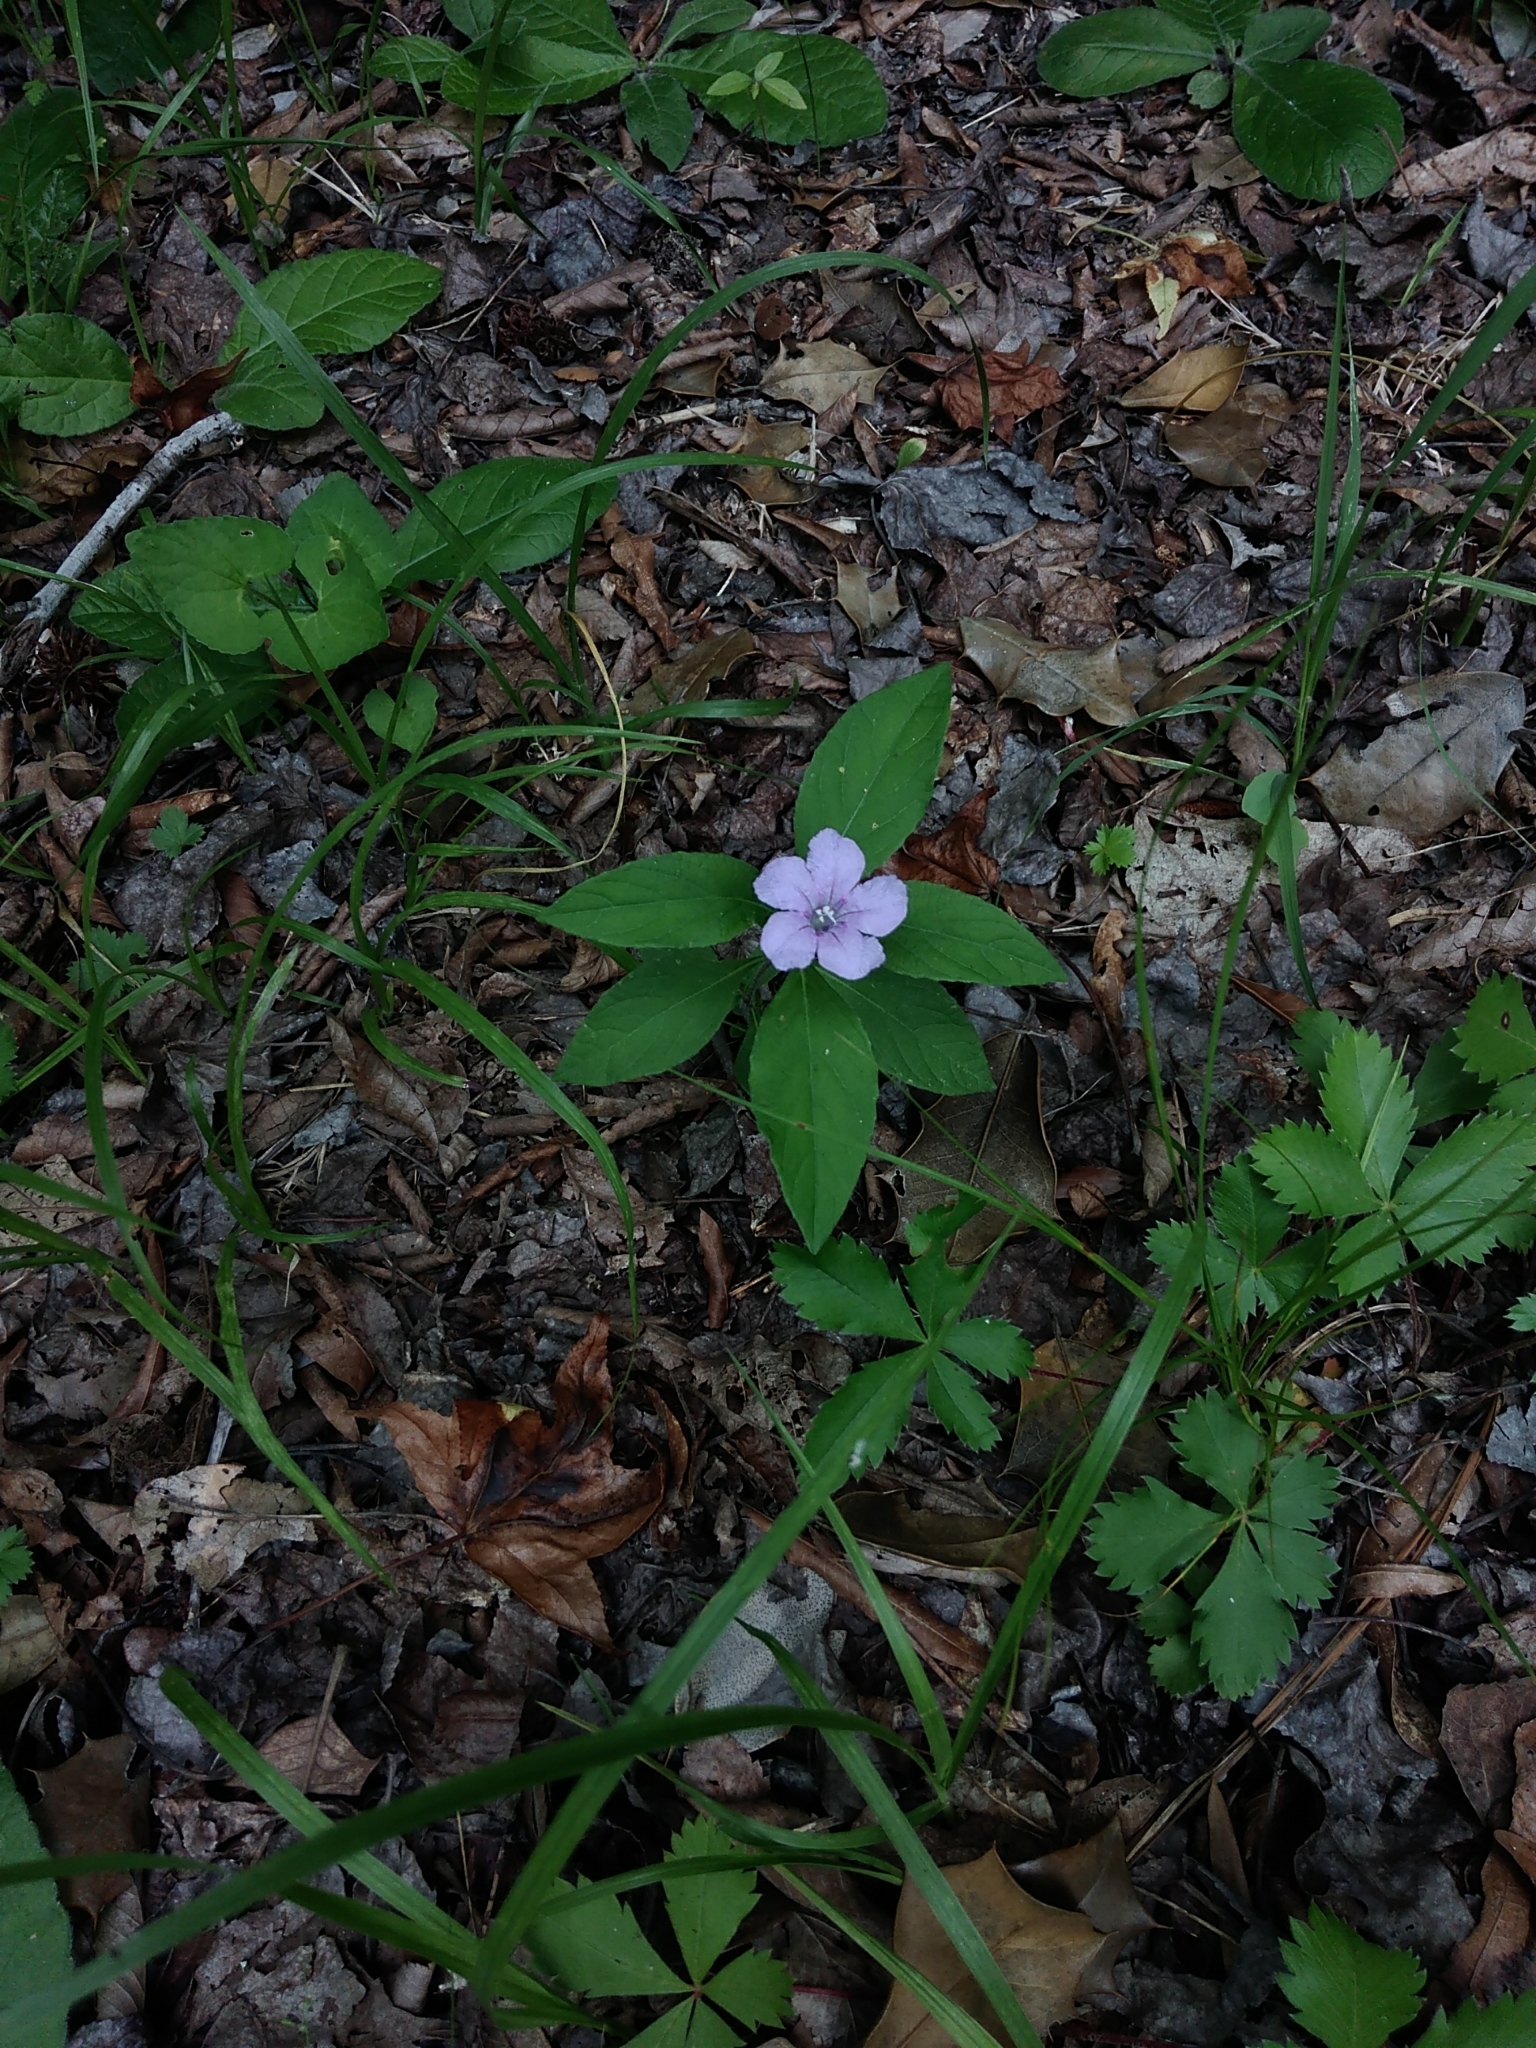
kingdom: Plantae
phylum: Tracheophyta
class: Magnoliopsida
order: Lamiales
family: Acanthaceae
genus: Ruellia
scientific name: Ruellia caroliniensis
